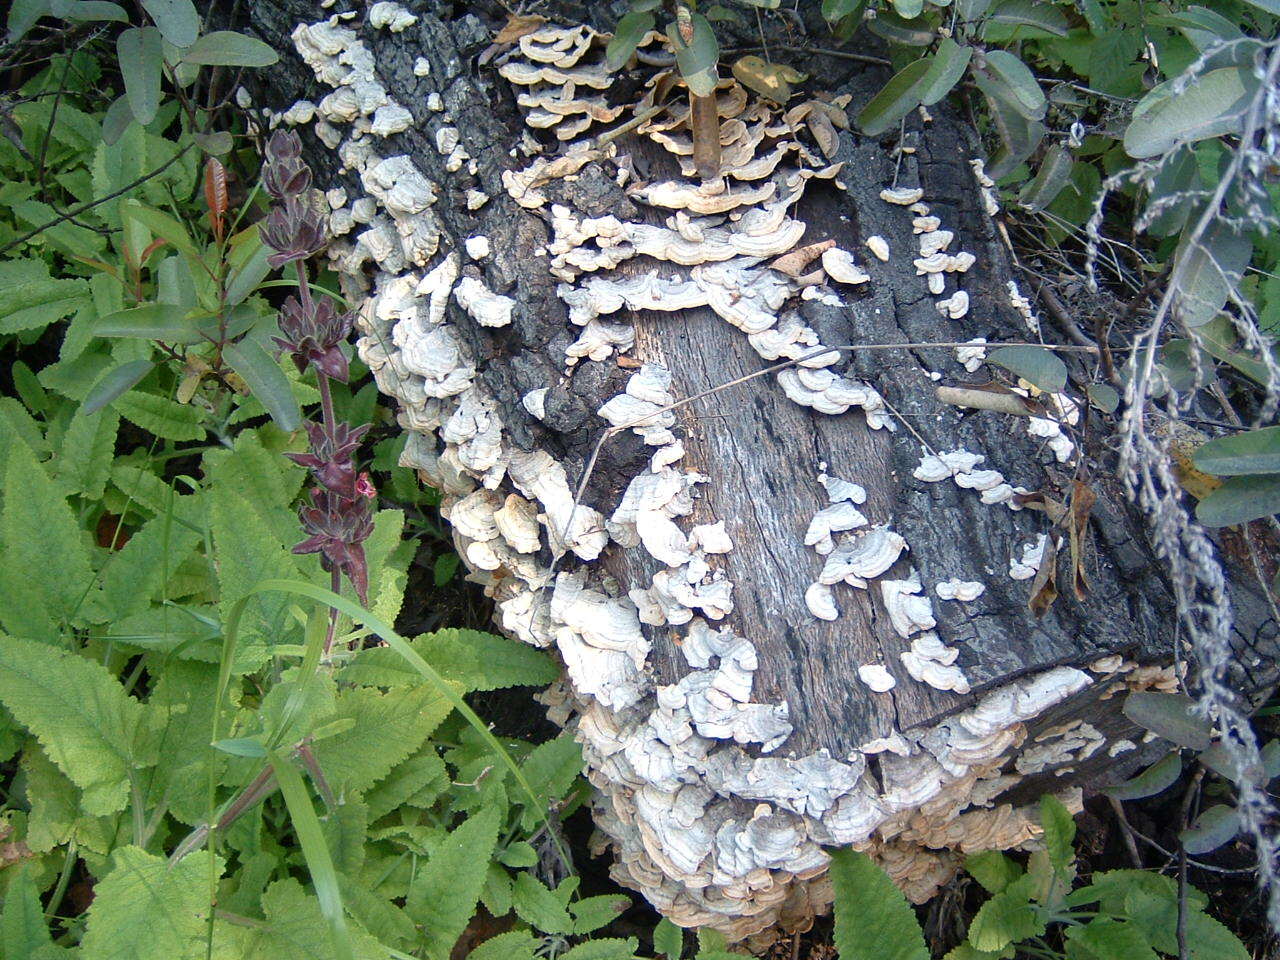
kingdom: Fungi
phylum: Basidiomycota
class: Agaricomycetes
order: Russulales
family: Stereaceae
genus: Stereum
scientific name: Stereum hirsutum
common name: Hairy curtain crust
